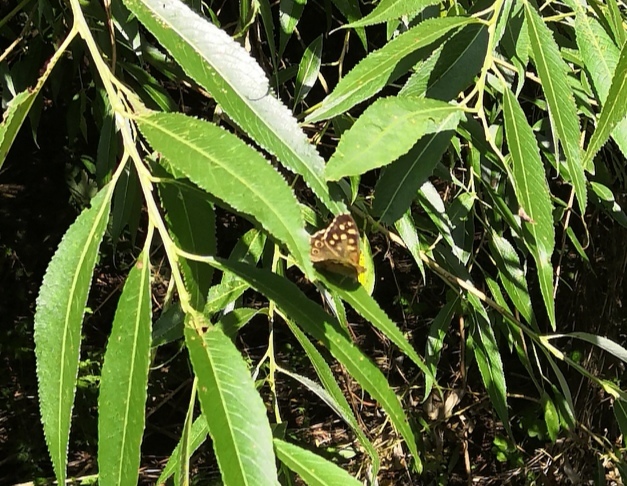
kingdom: Animalia
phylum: Arthropoda
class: Insecta
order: Lepidoptera
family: Nymphalidae
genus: Pararge
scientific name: Pararge aegeria
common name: Speckled wood
